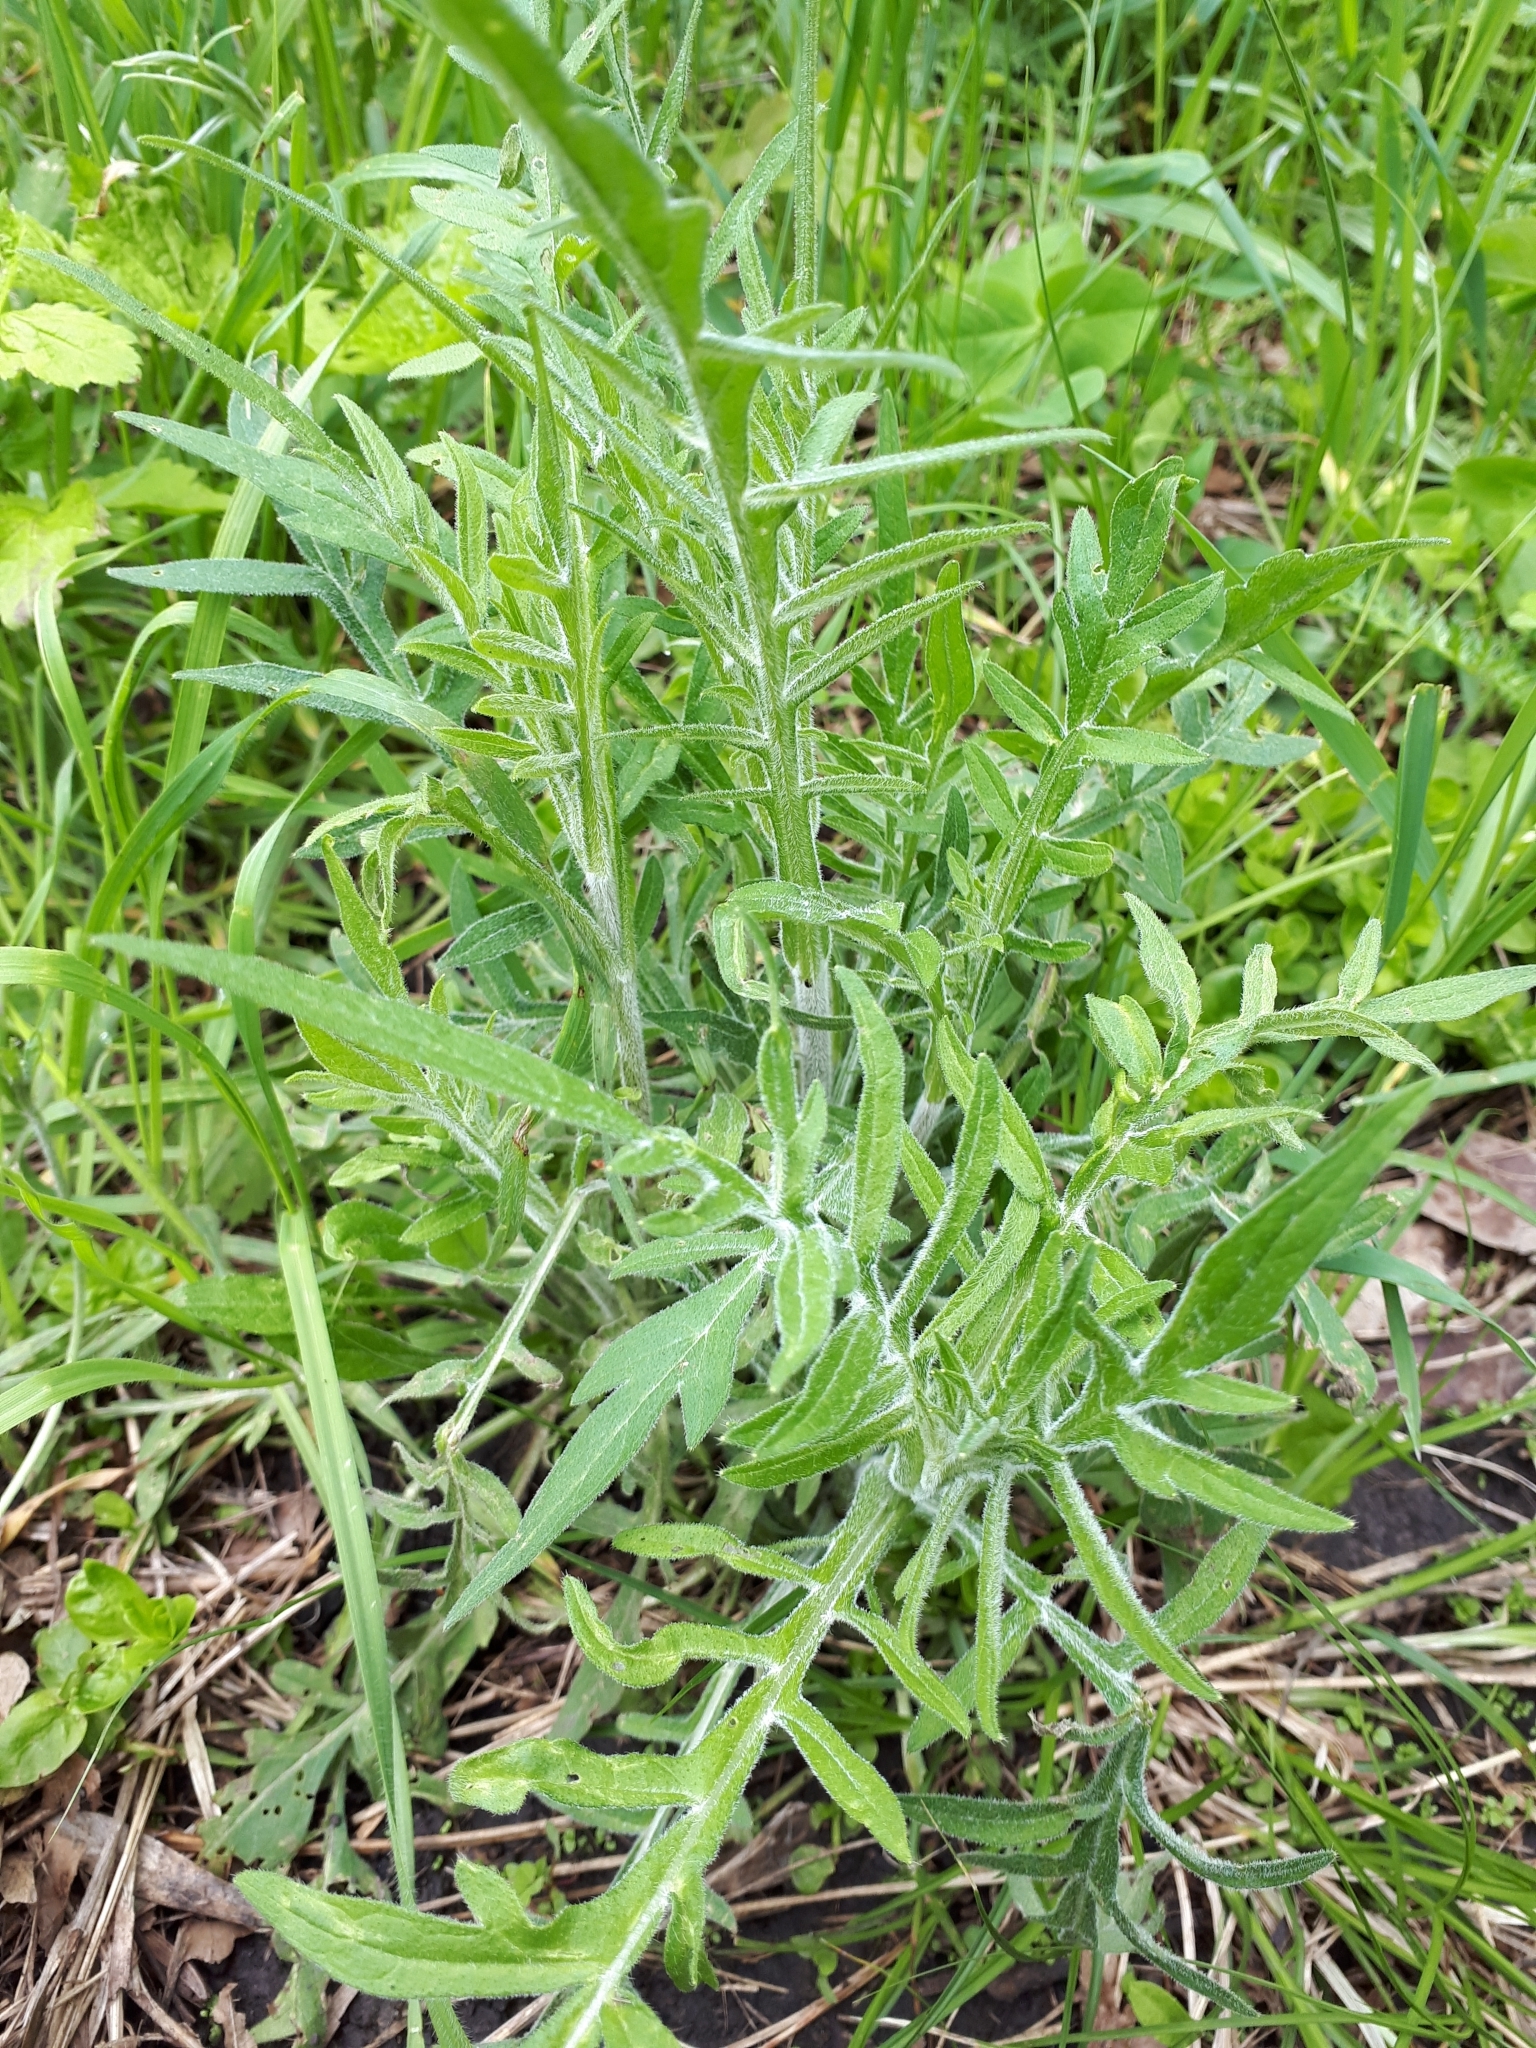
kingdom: Plantae
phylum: Tracheophyta
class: Magnoliopsida
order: Dipsacales
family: Caprifoliaceae
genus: Knautia
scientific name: Knautia arvensis
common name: Field scabiosa
